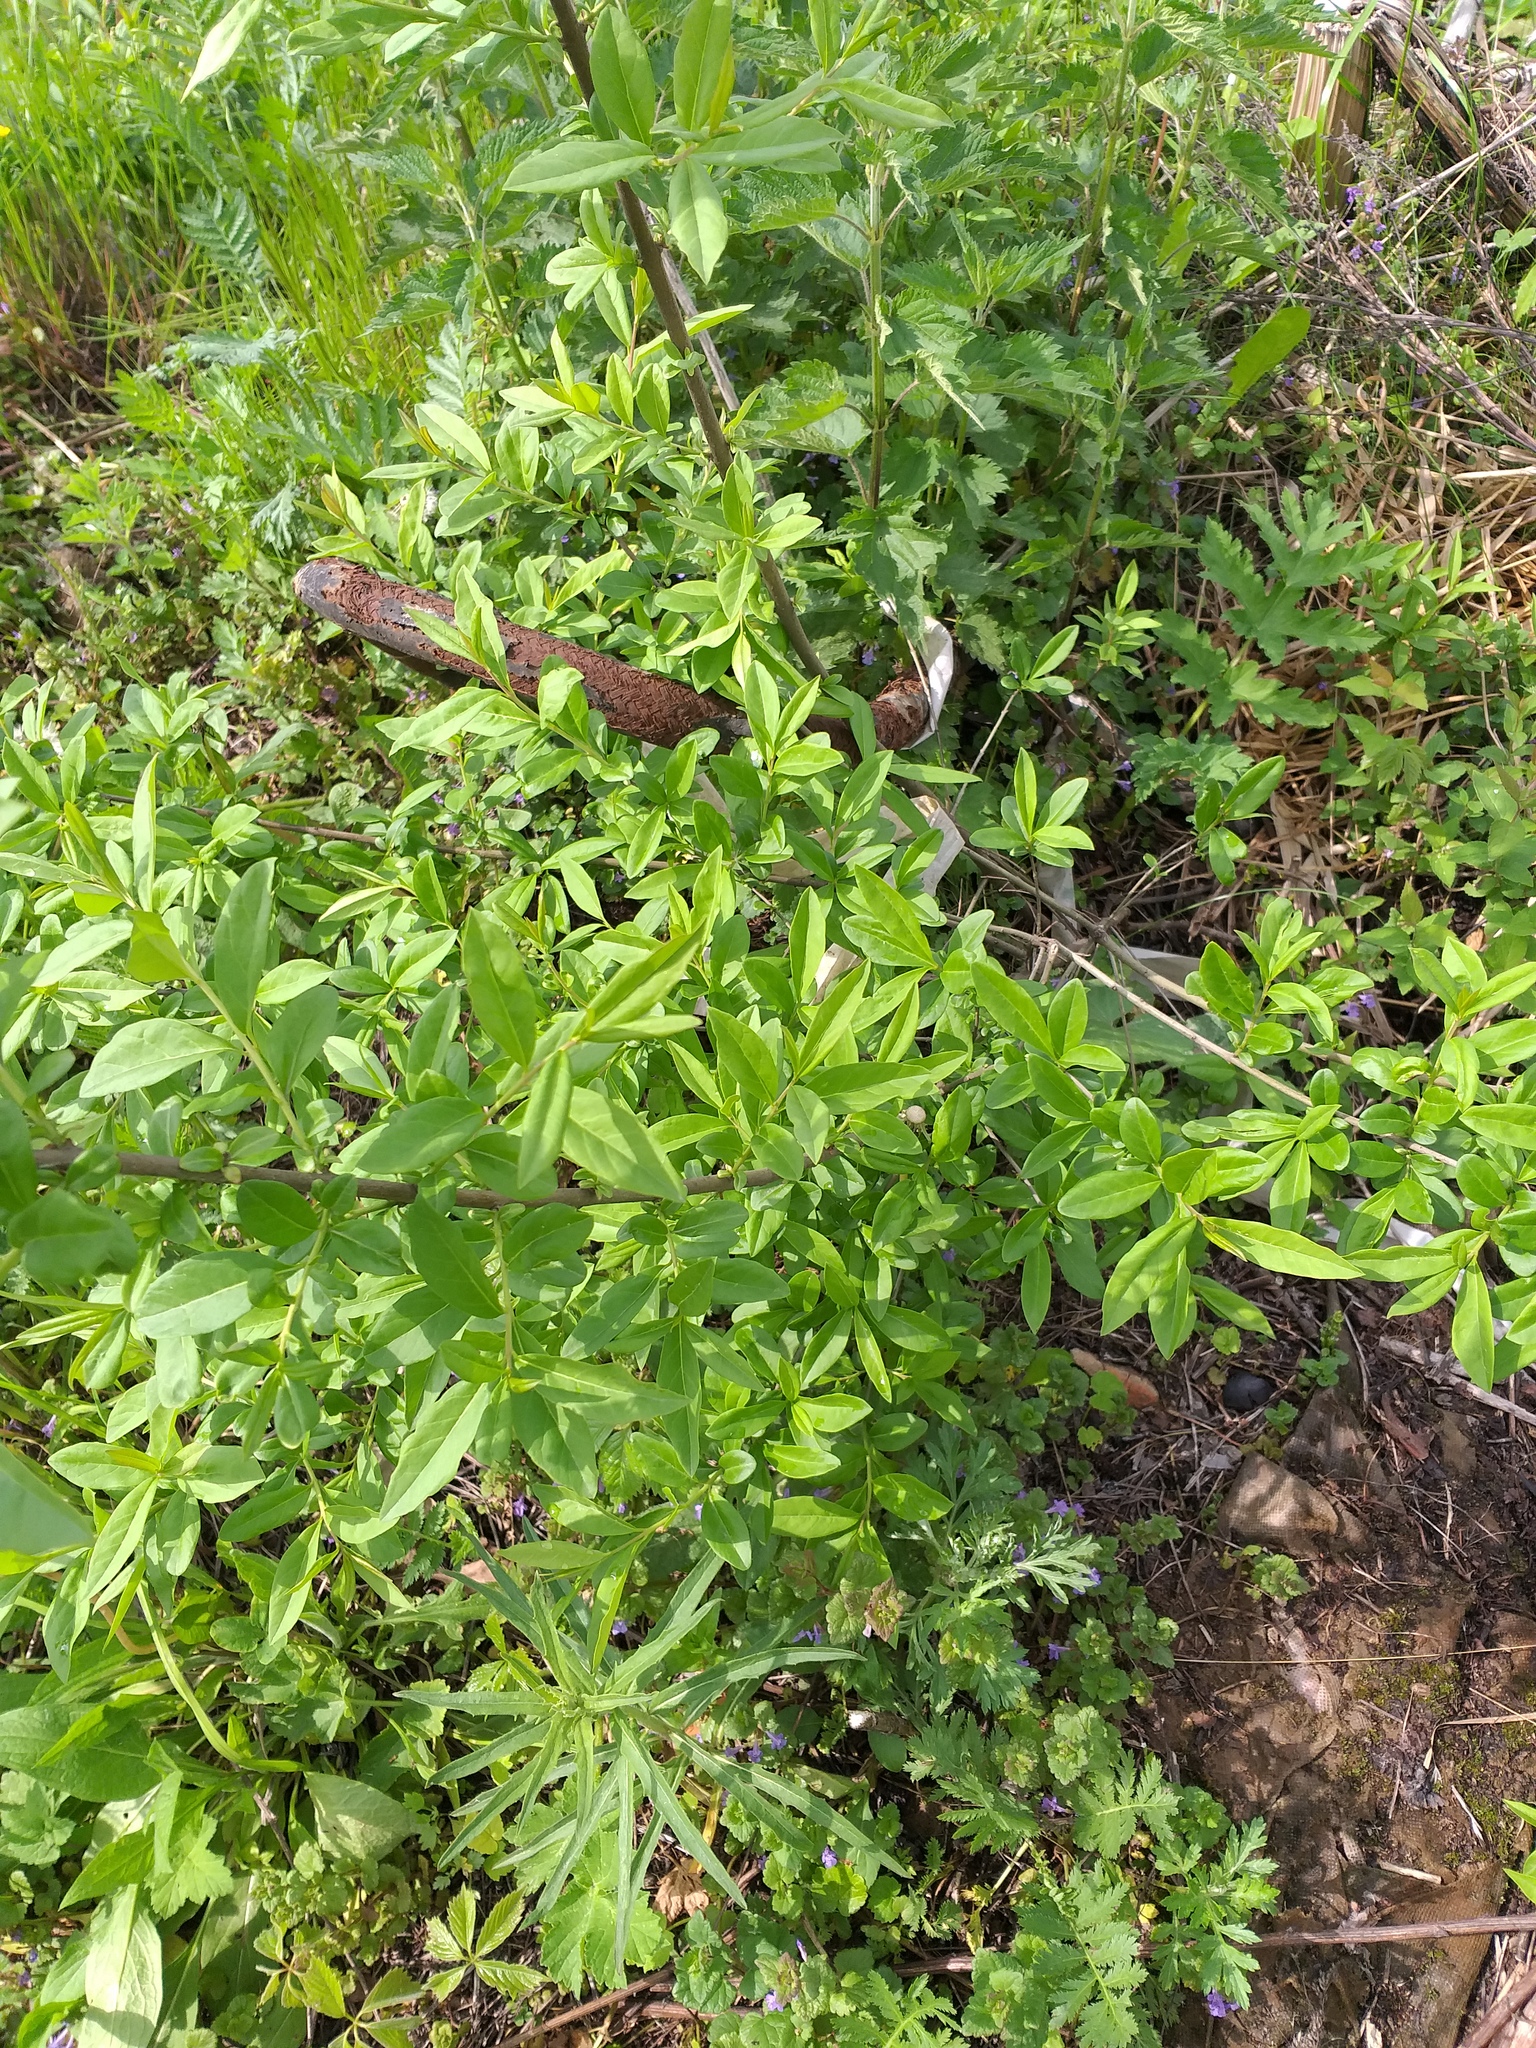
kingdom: Plantae
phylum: Tracheophyta
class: Magnoliopsida
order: Lamiales
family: Oleaceae
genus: Ligustrum
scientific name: Ligustrum vulgare
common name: Wild privet
